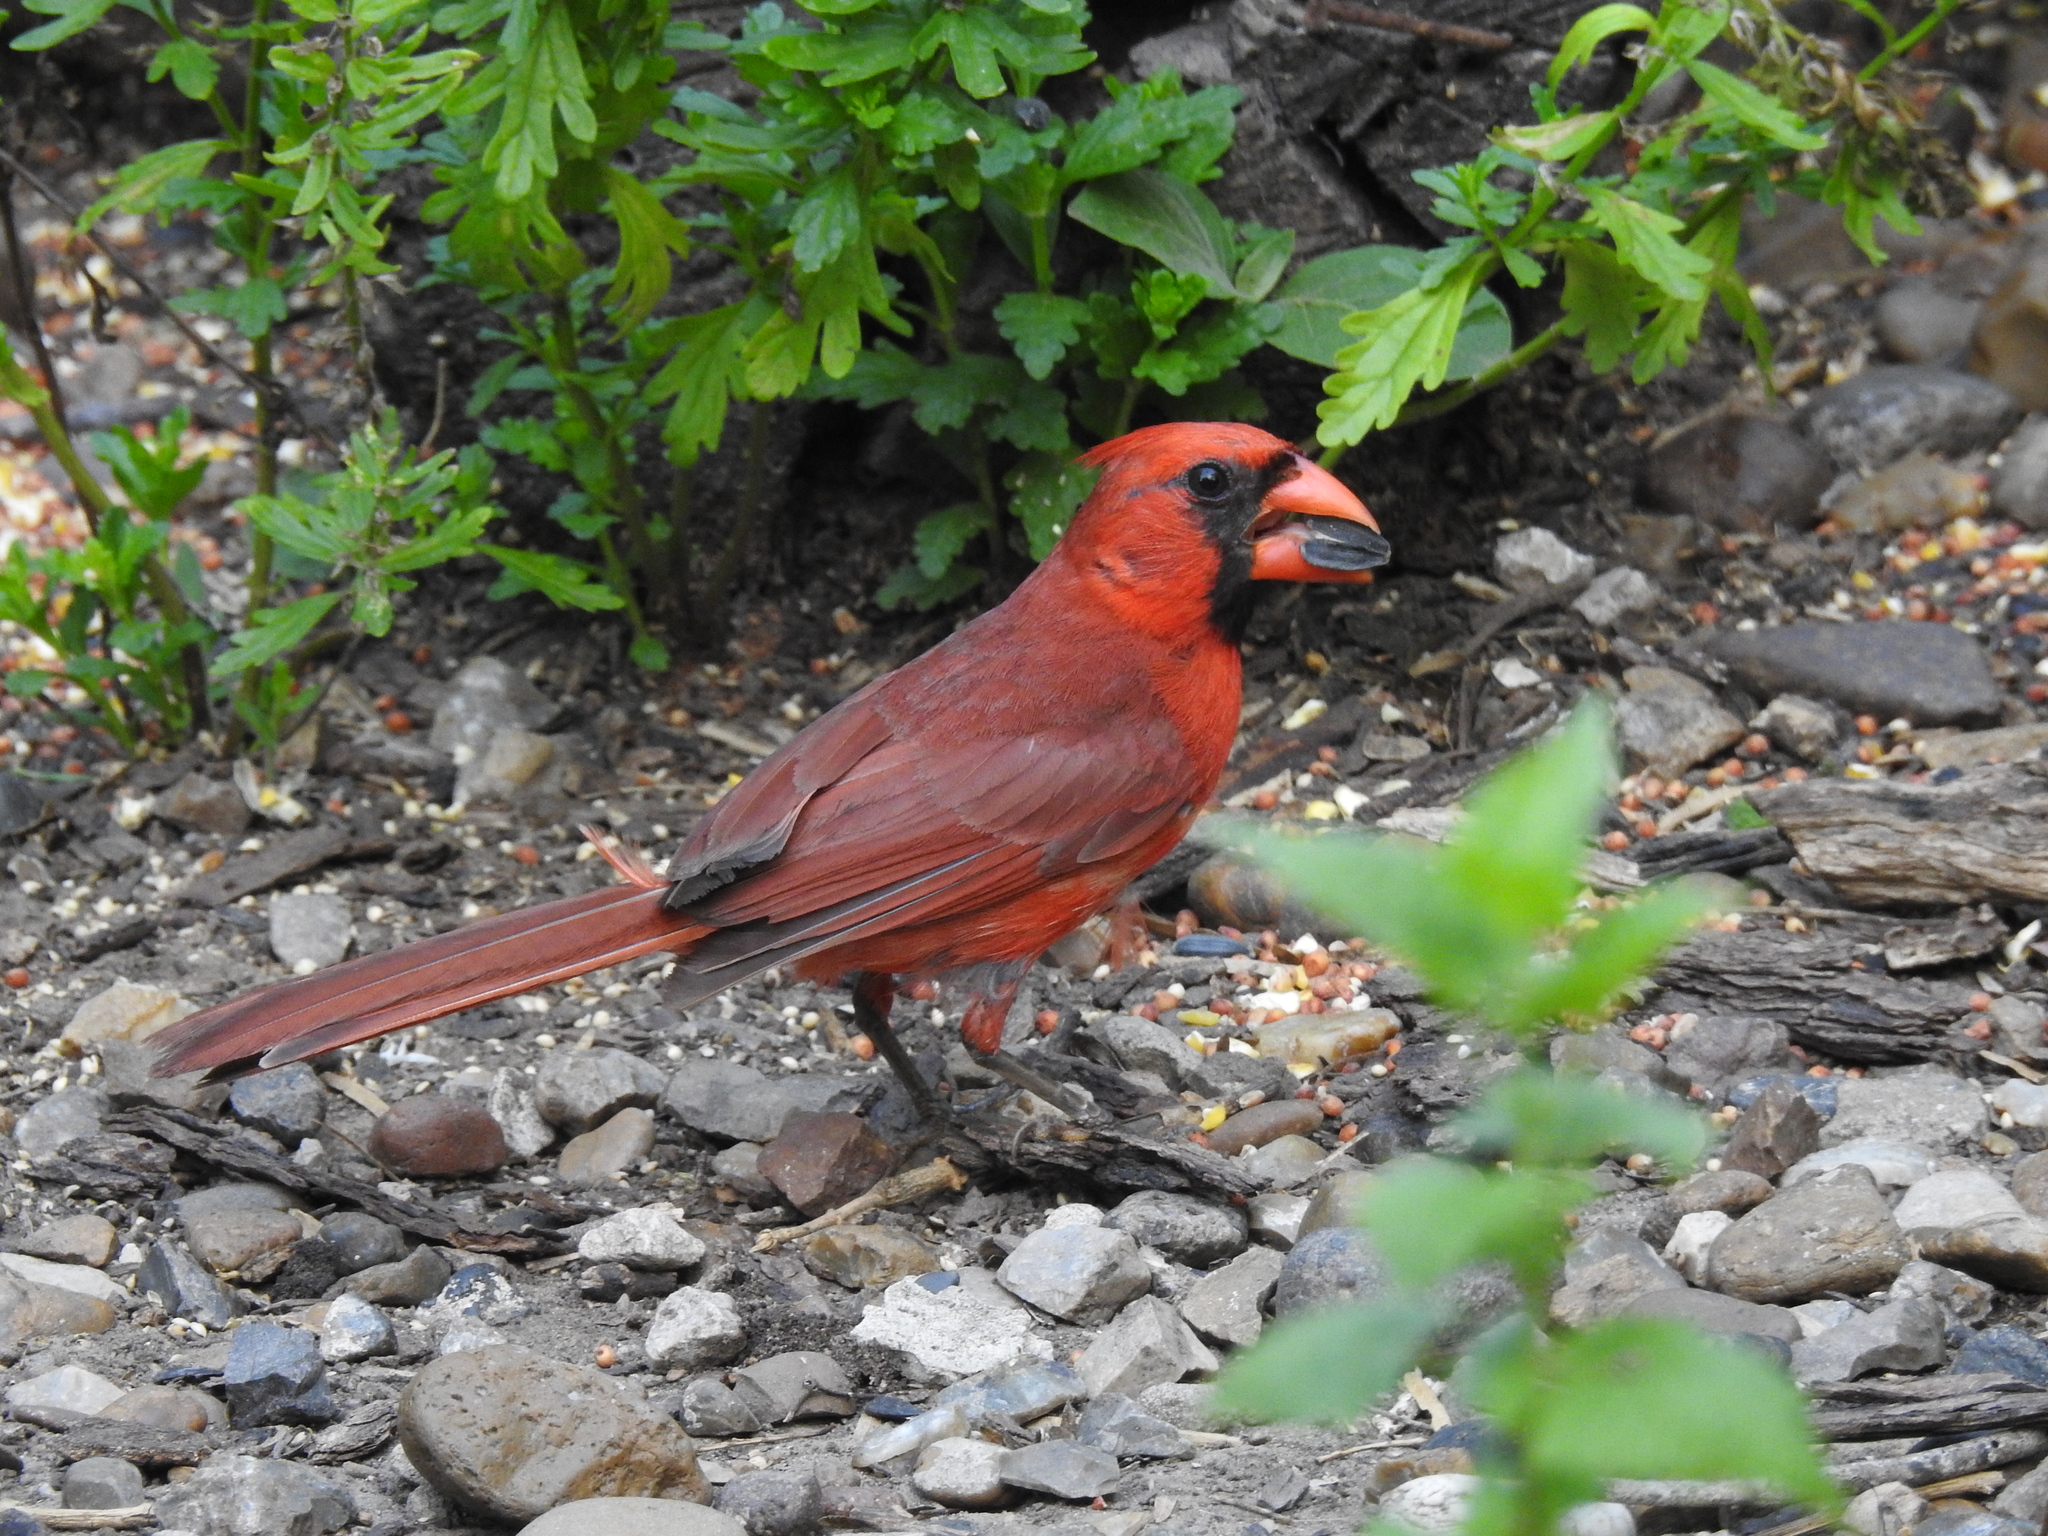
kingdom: Animalia
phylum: Chordata
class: Aves
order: Passeriformes
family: Cardinalidae
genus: Cardinalis
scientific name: Cardinalis cardinalis
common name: Northern cardinal
